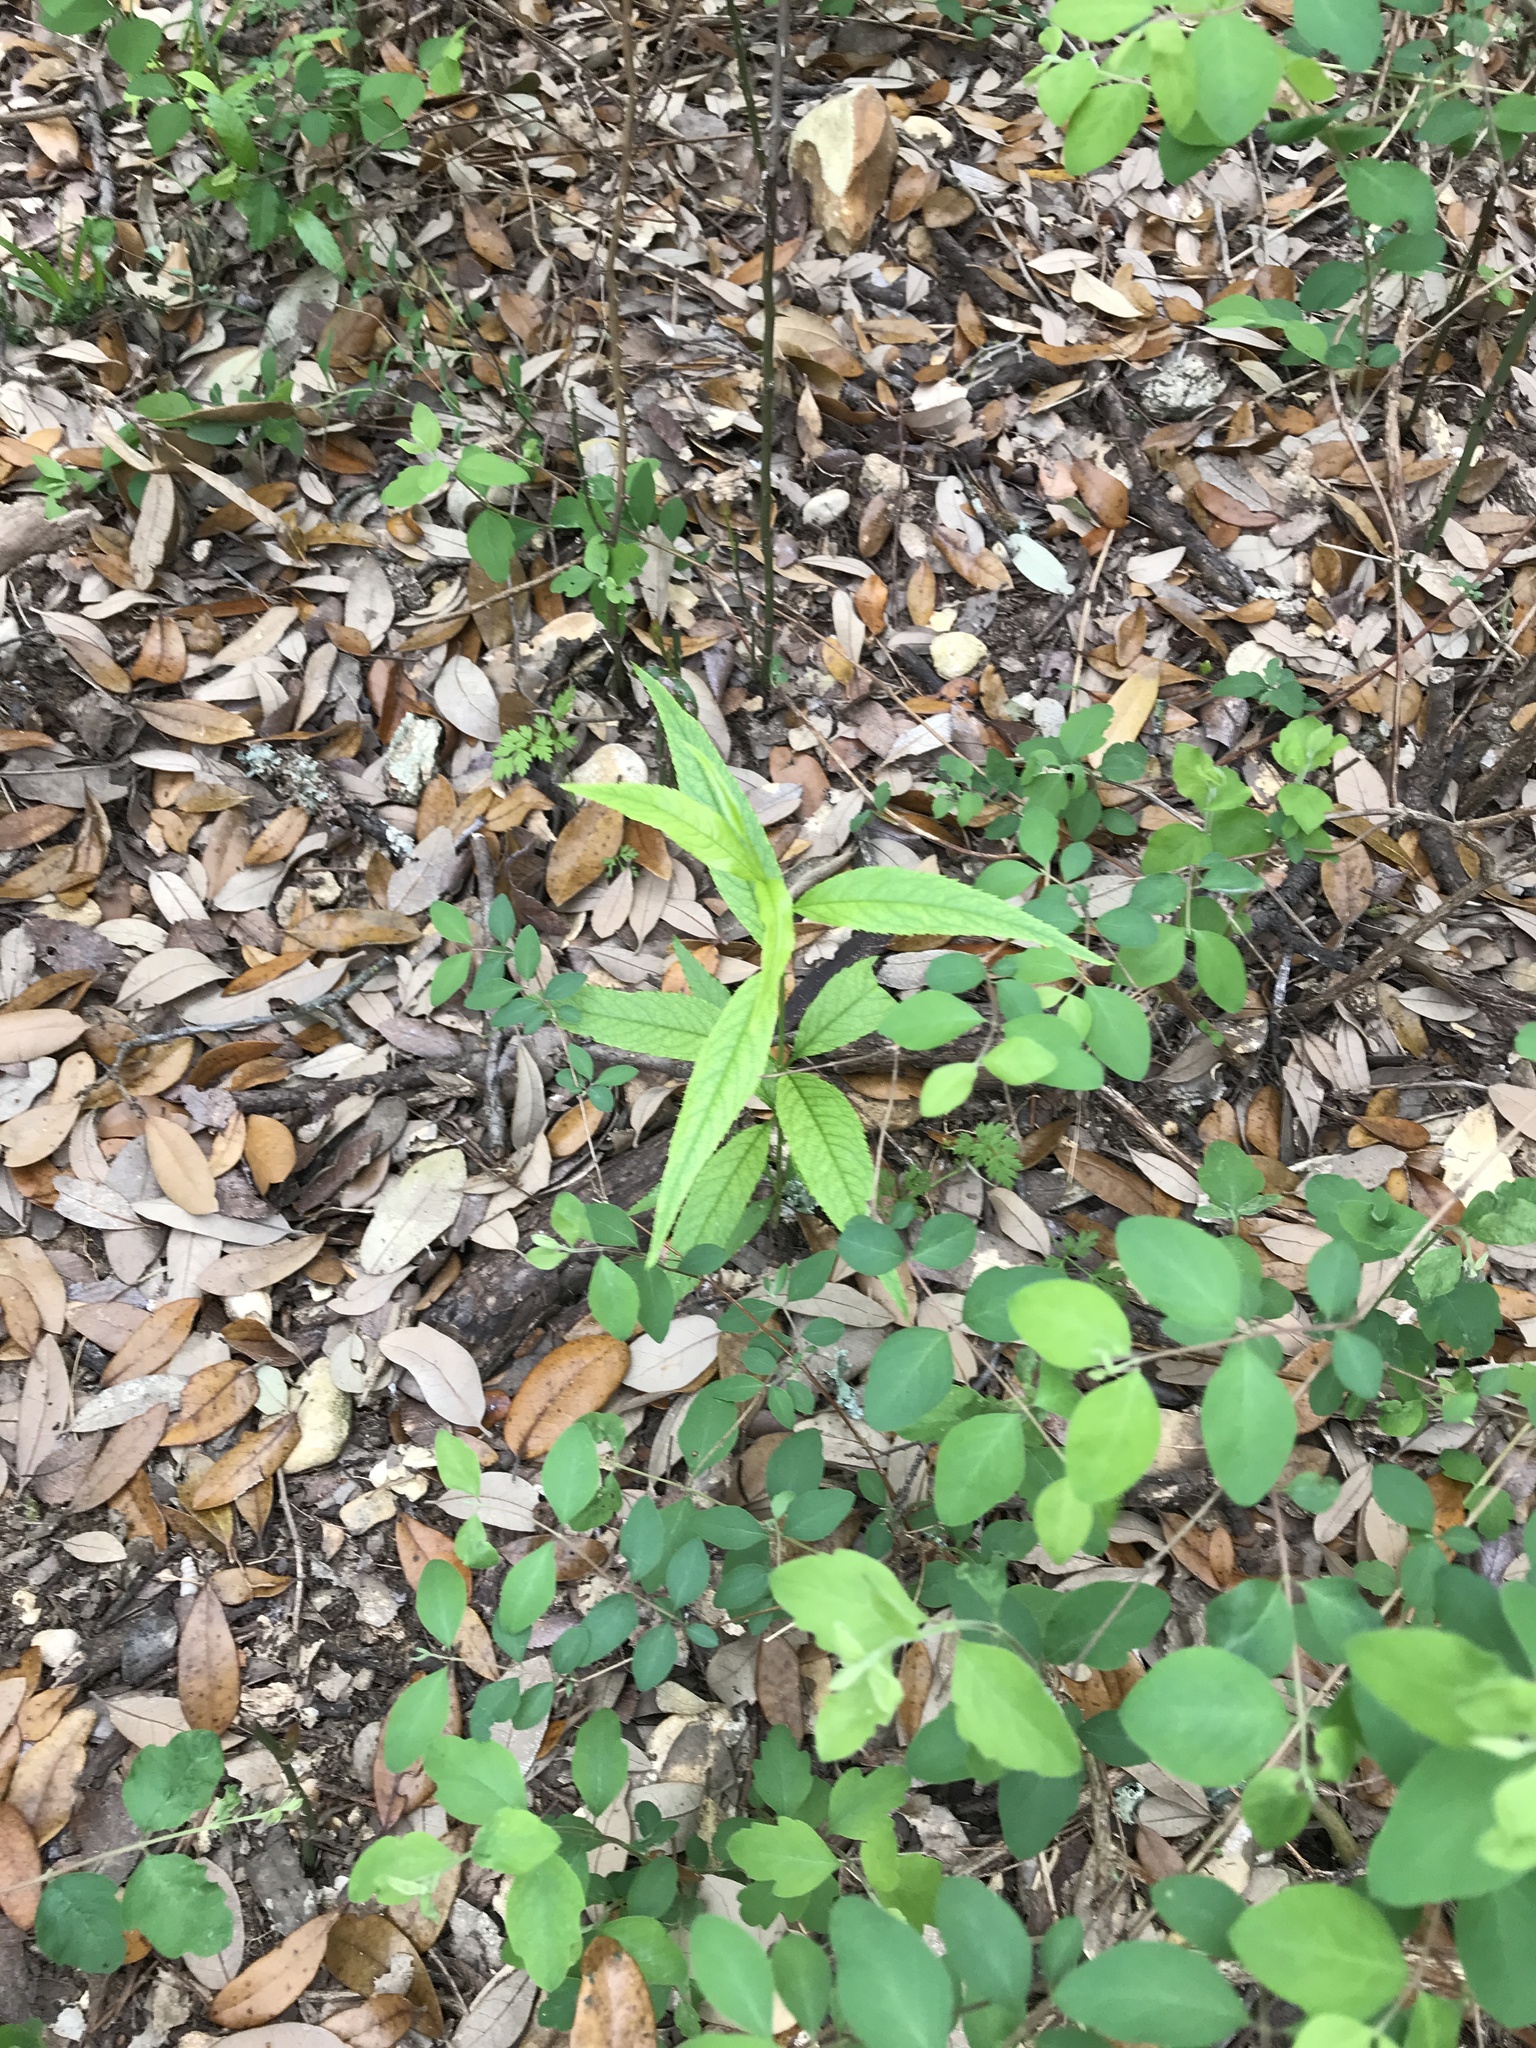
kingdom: Plantae
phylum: Tracheophyta
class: Magnoliopsida
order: Rosales
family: Rosaceae
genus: Prunus
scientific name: Prunus persica
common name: Peach
